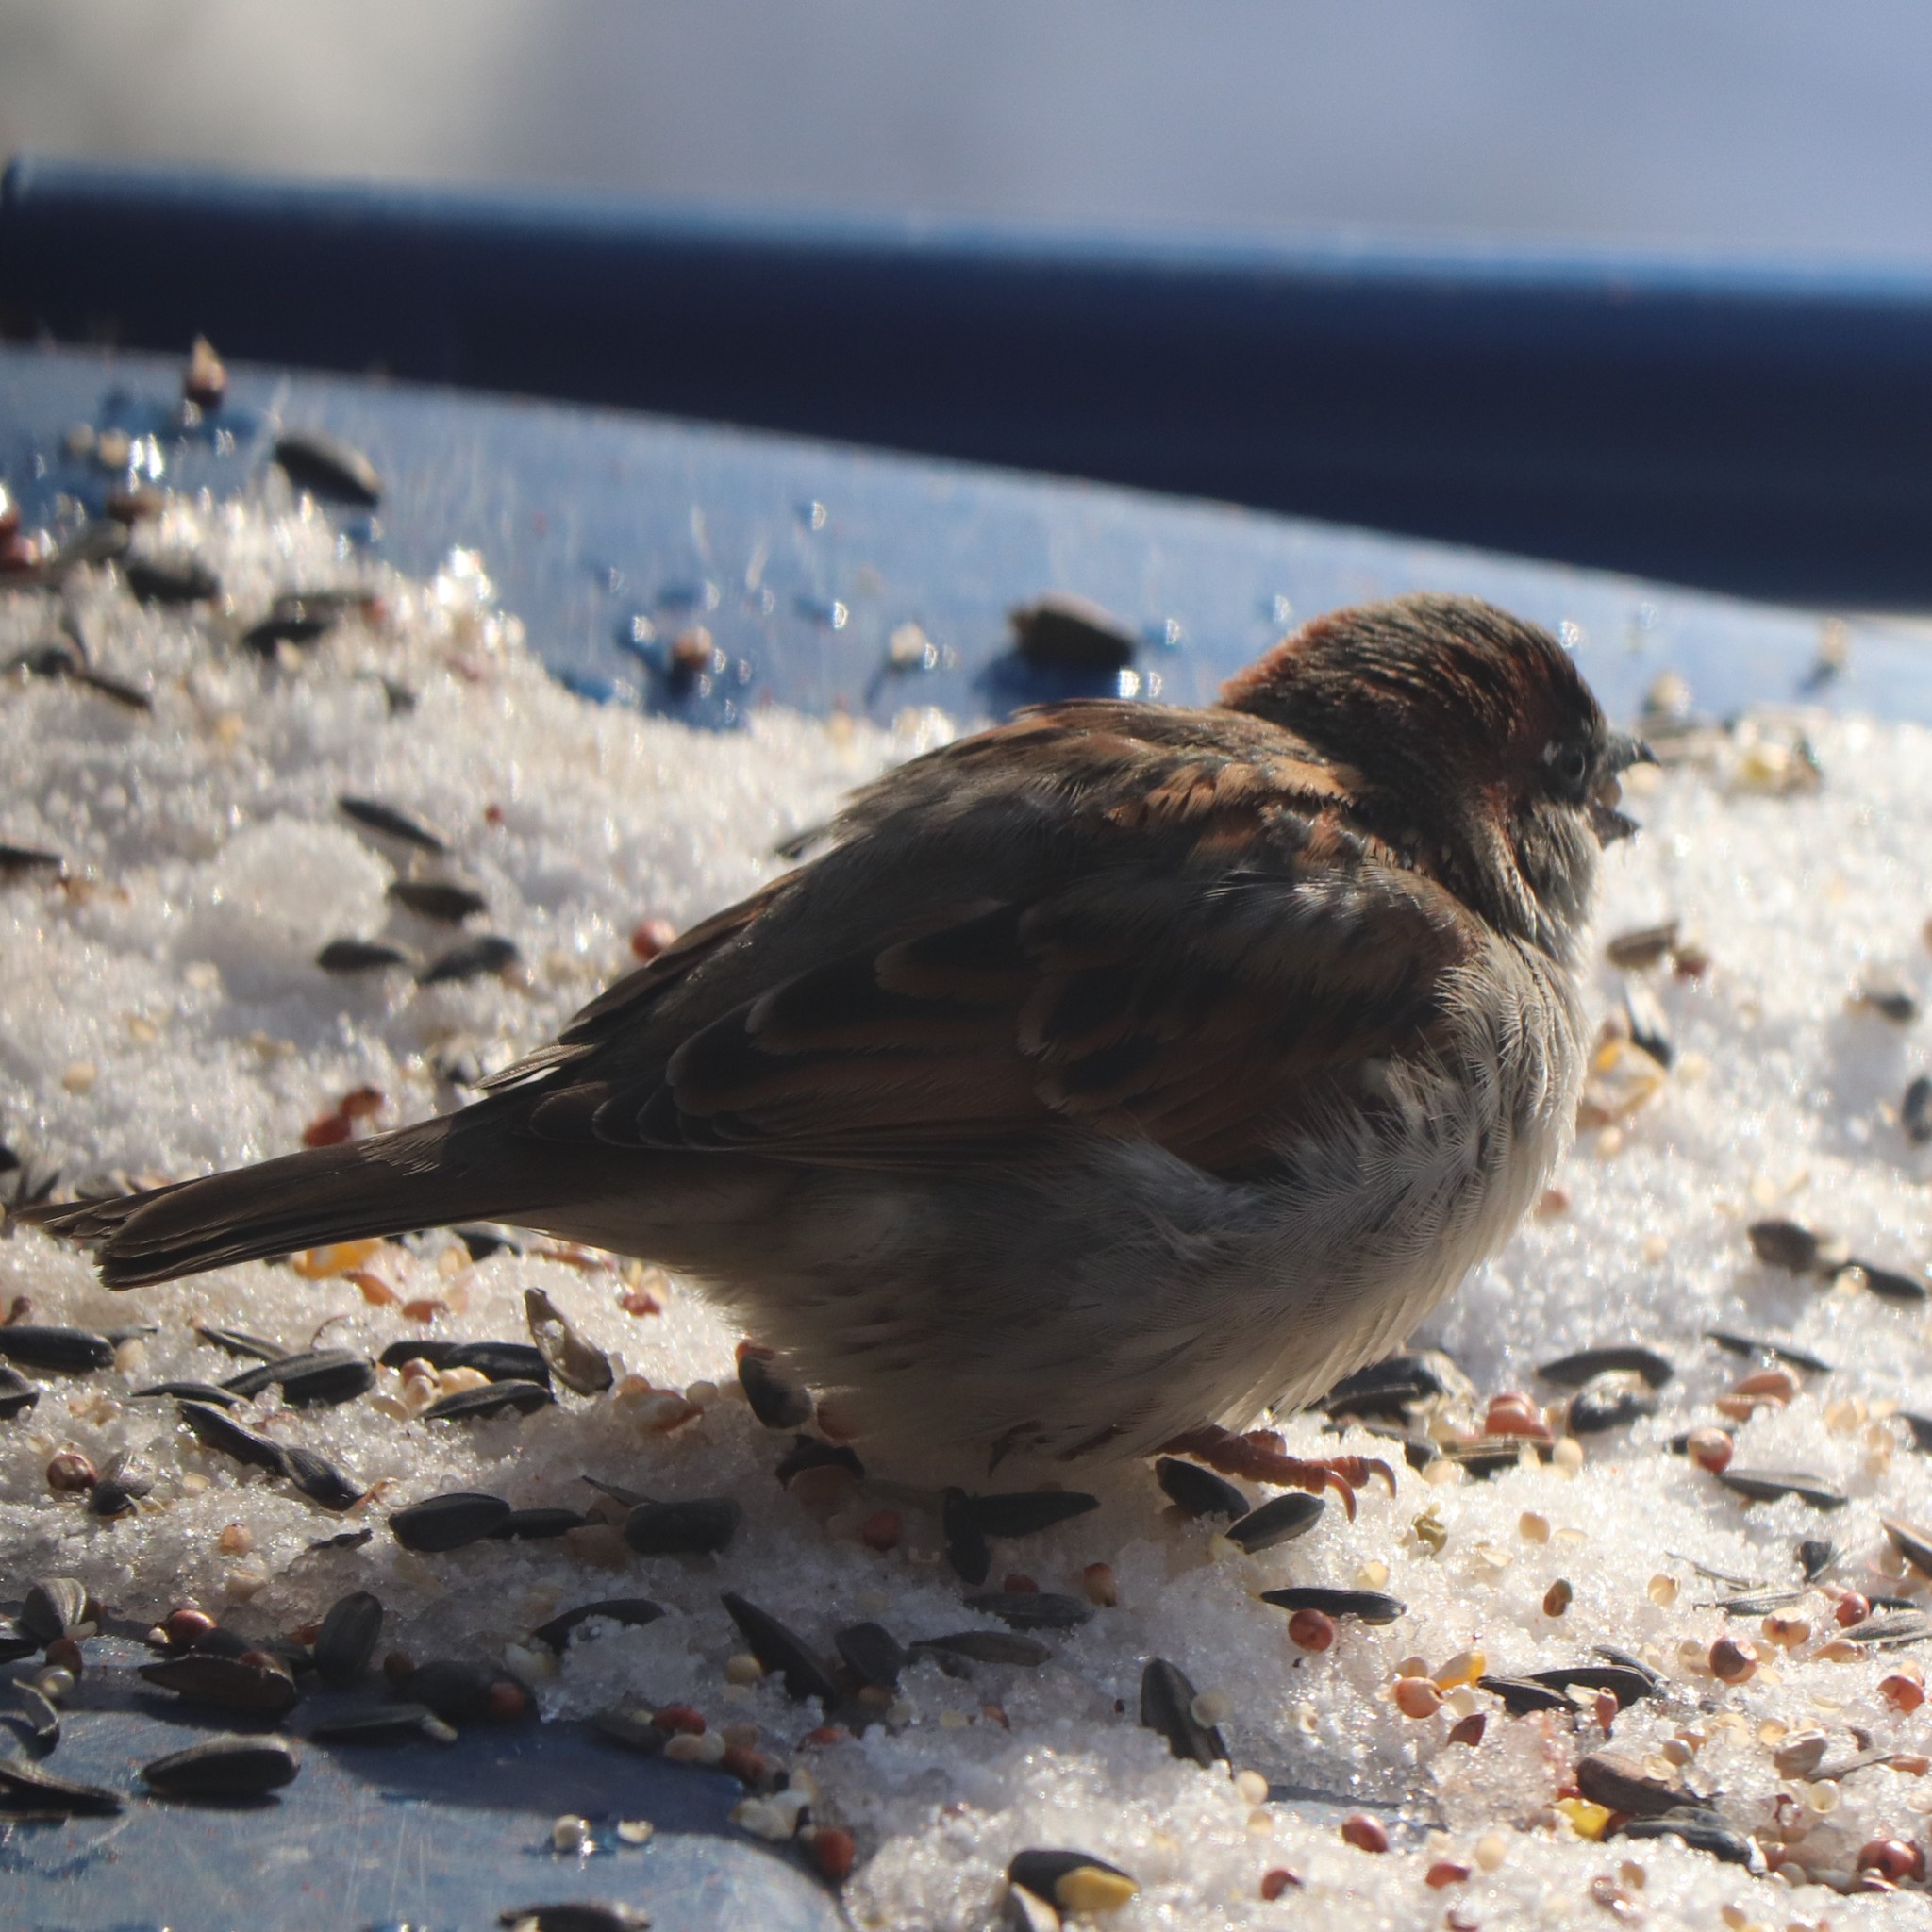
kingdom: Animalia
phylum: Chordata
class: Aves
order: Passeriformes
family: Passeridae
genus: Passer
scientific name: Passer domesticus
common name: House sparrow
